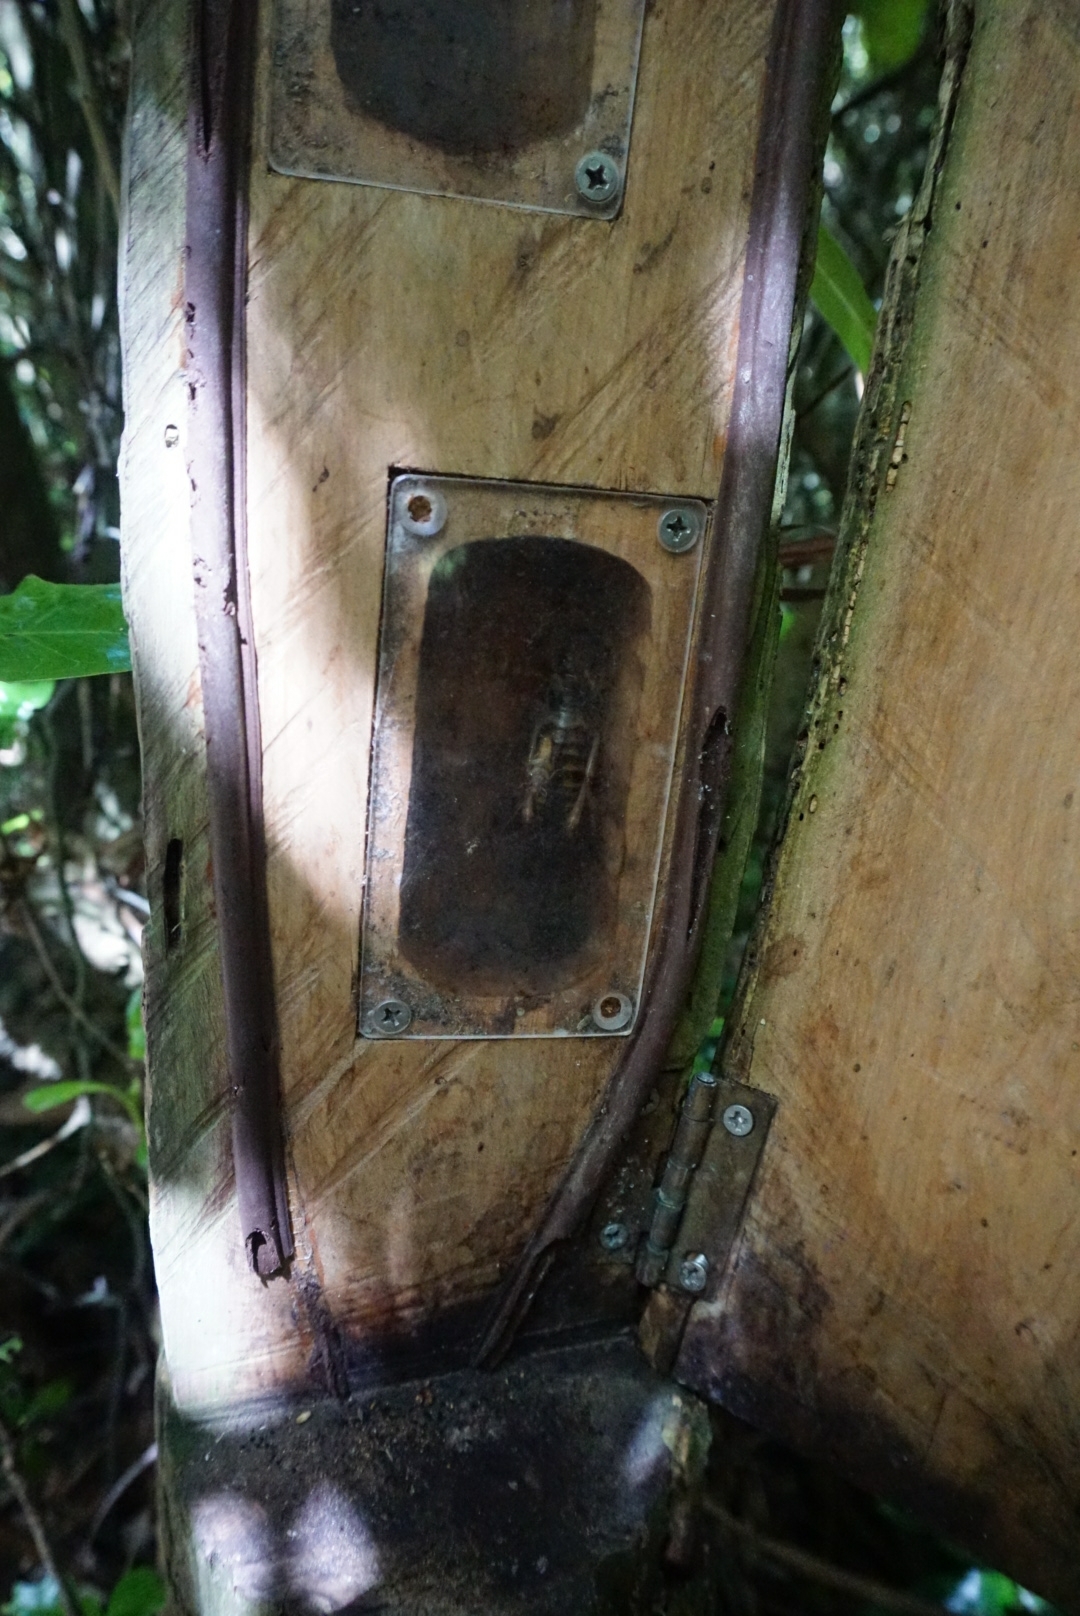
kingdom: Animalia
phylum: Arthropoda
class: Insecta
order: Orthoptera
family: Anostostomatidae
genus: Hemideina
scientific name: Hemideina crassidens
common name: Wellington tree weta
